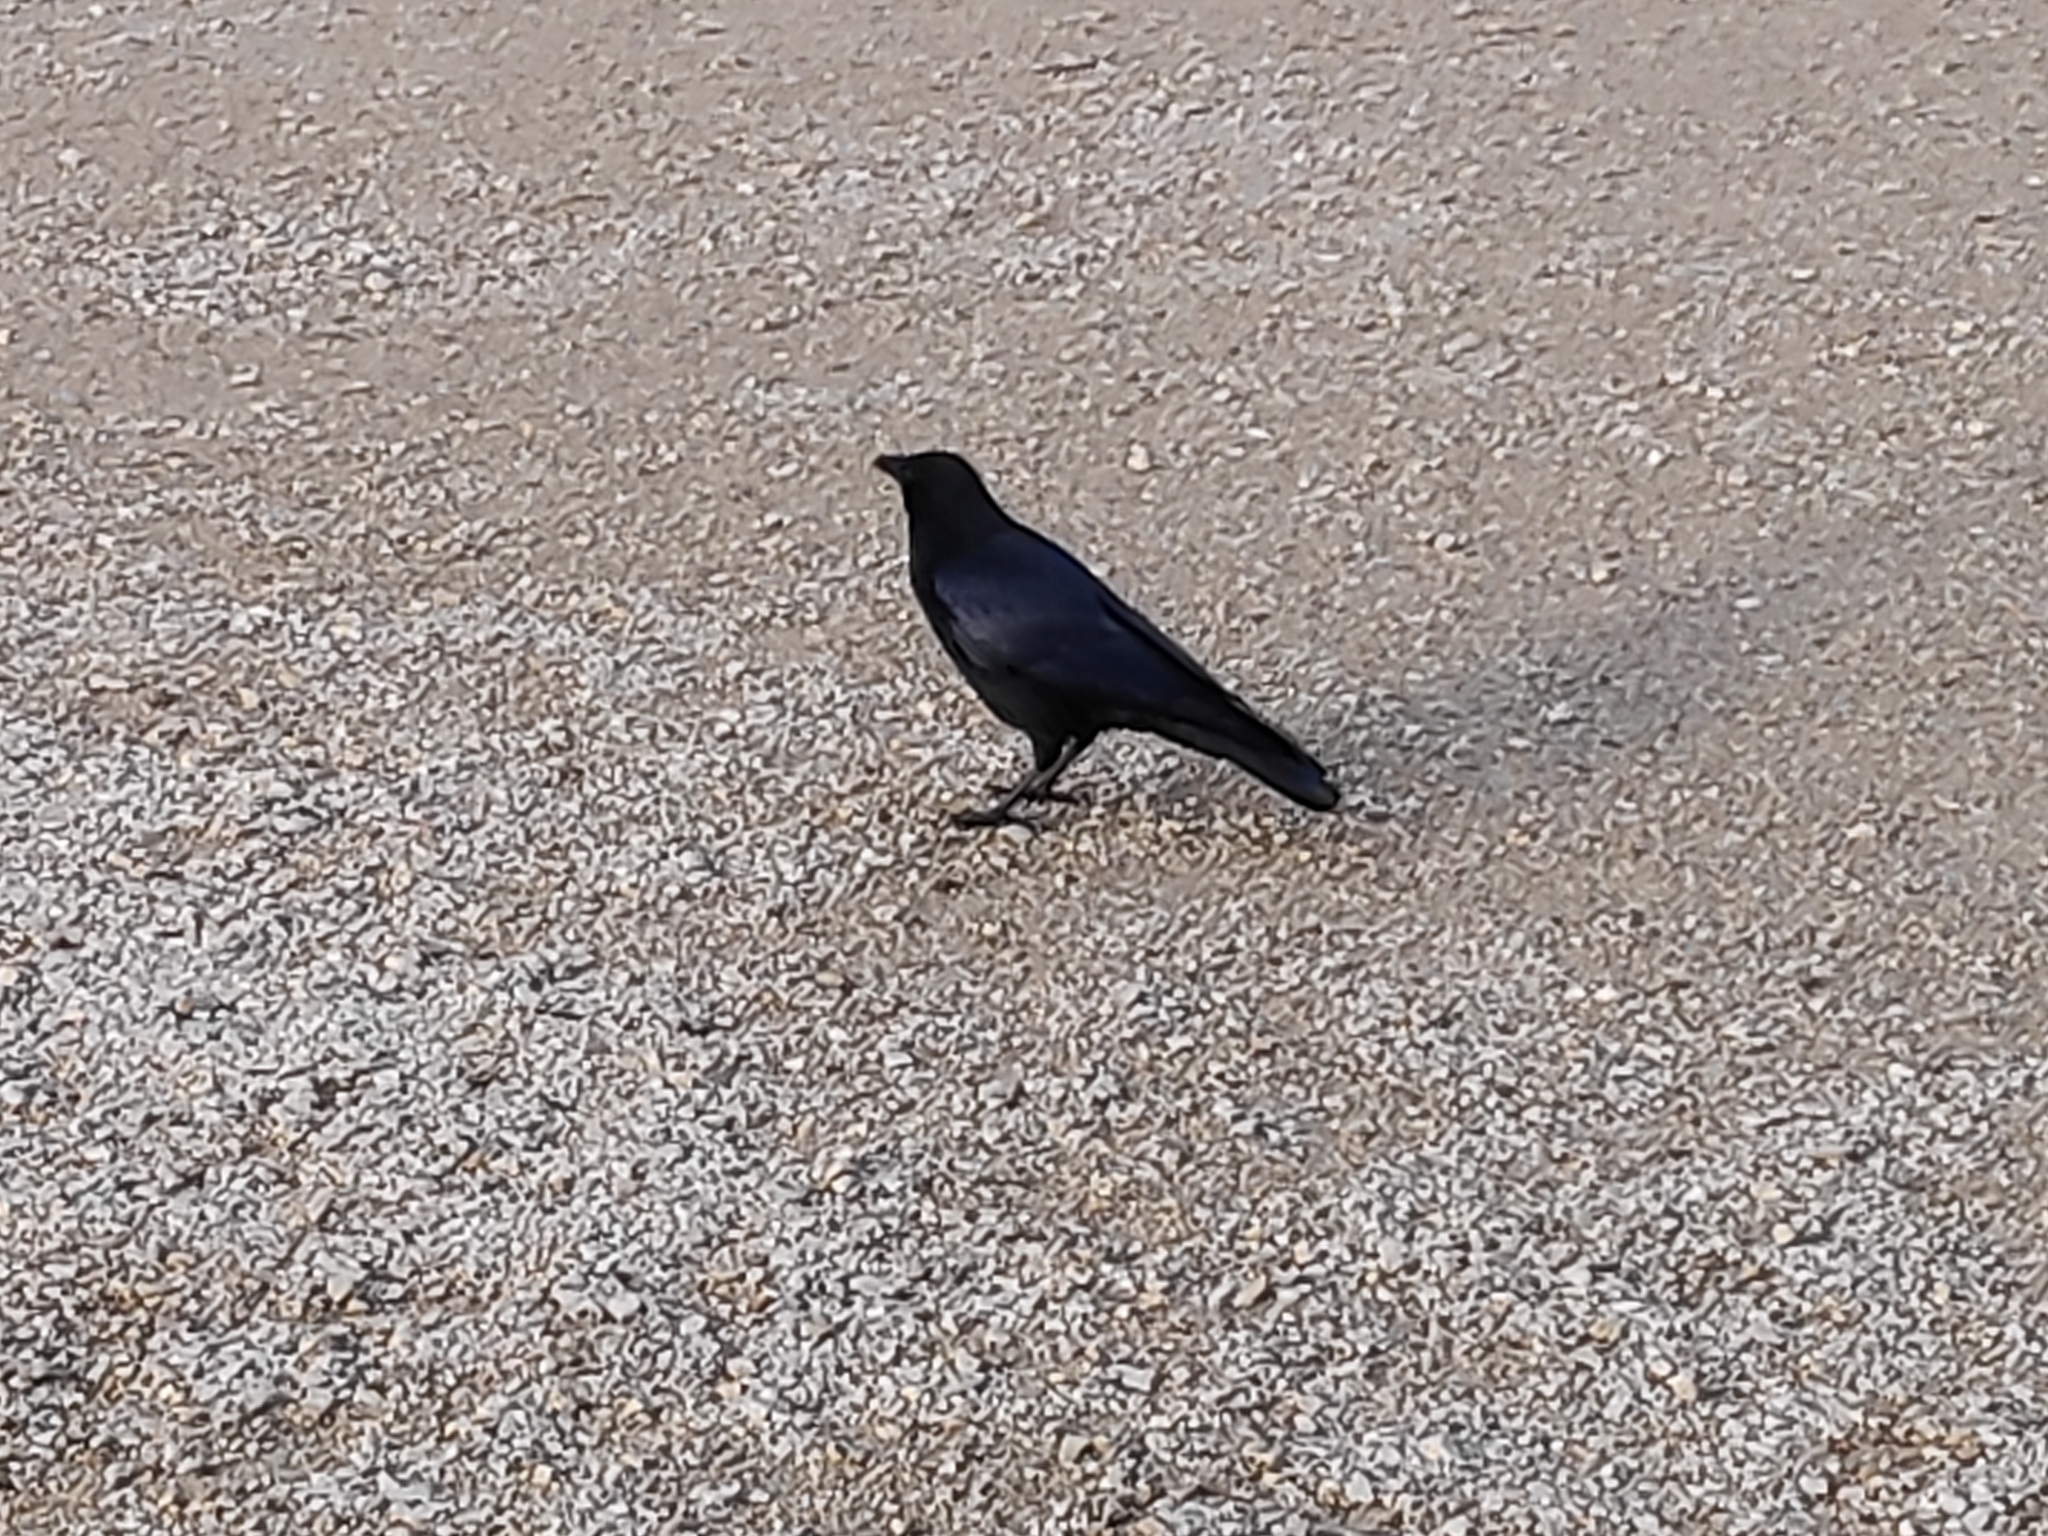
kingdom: Animalia
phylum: Chordata
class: Aves
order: Passeriformes
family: Corvidae
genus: Corvus
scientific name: Corvus corone
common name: Carrion crow
